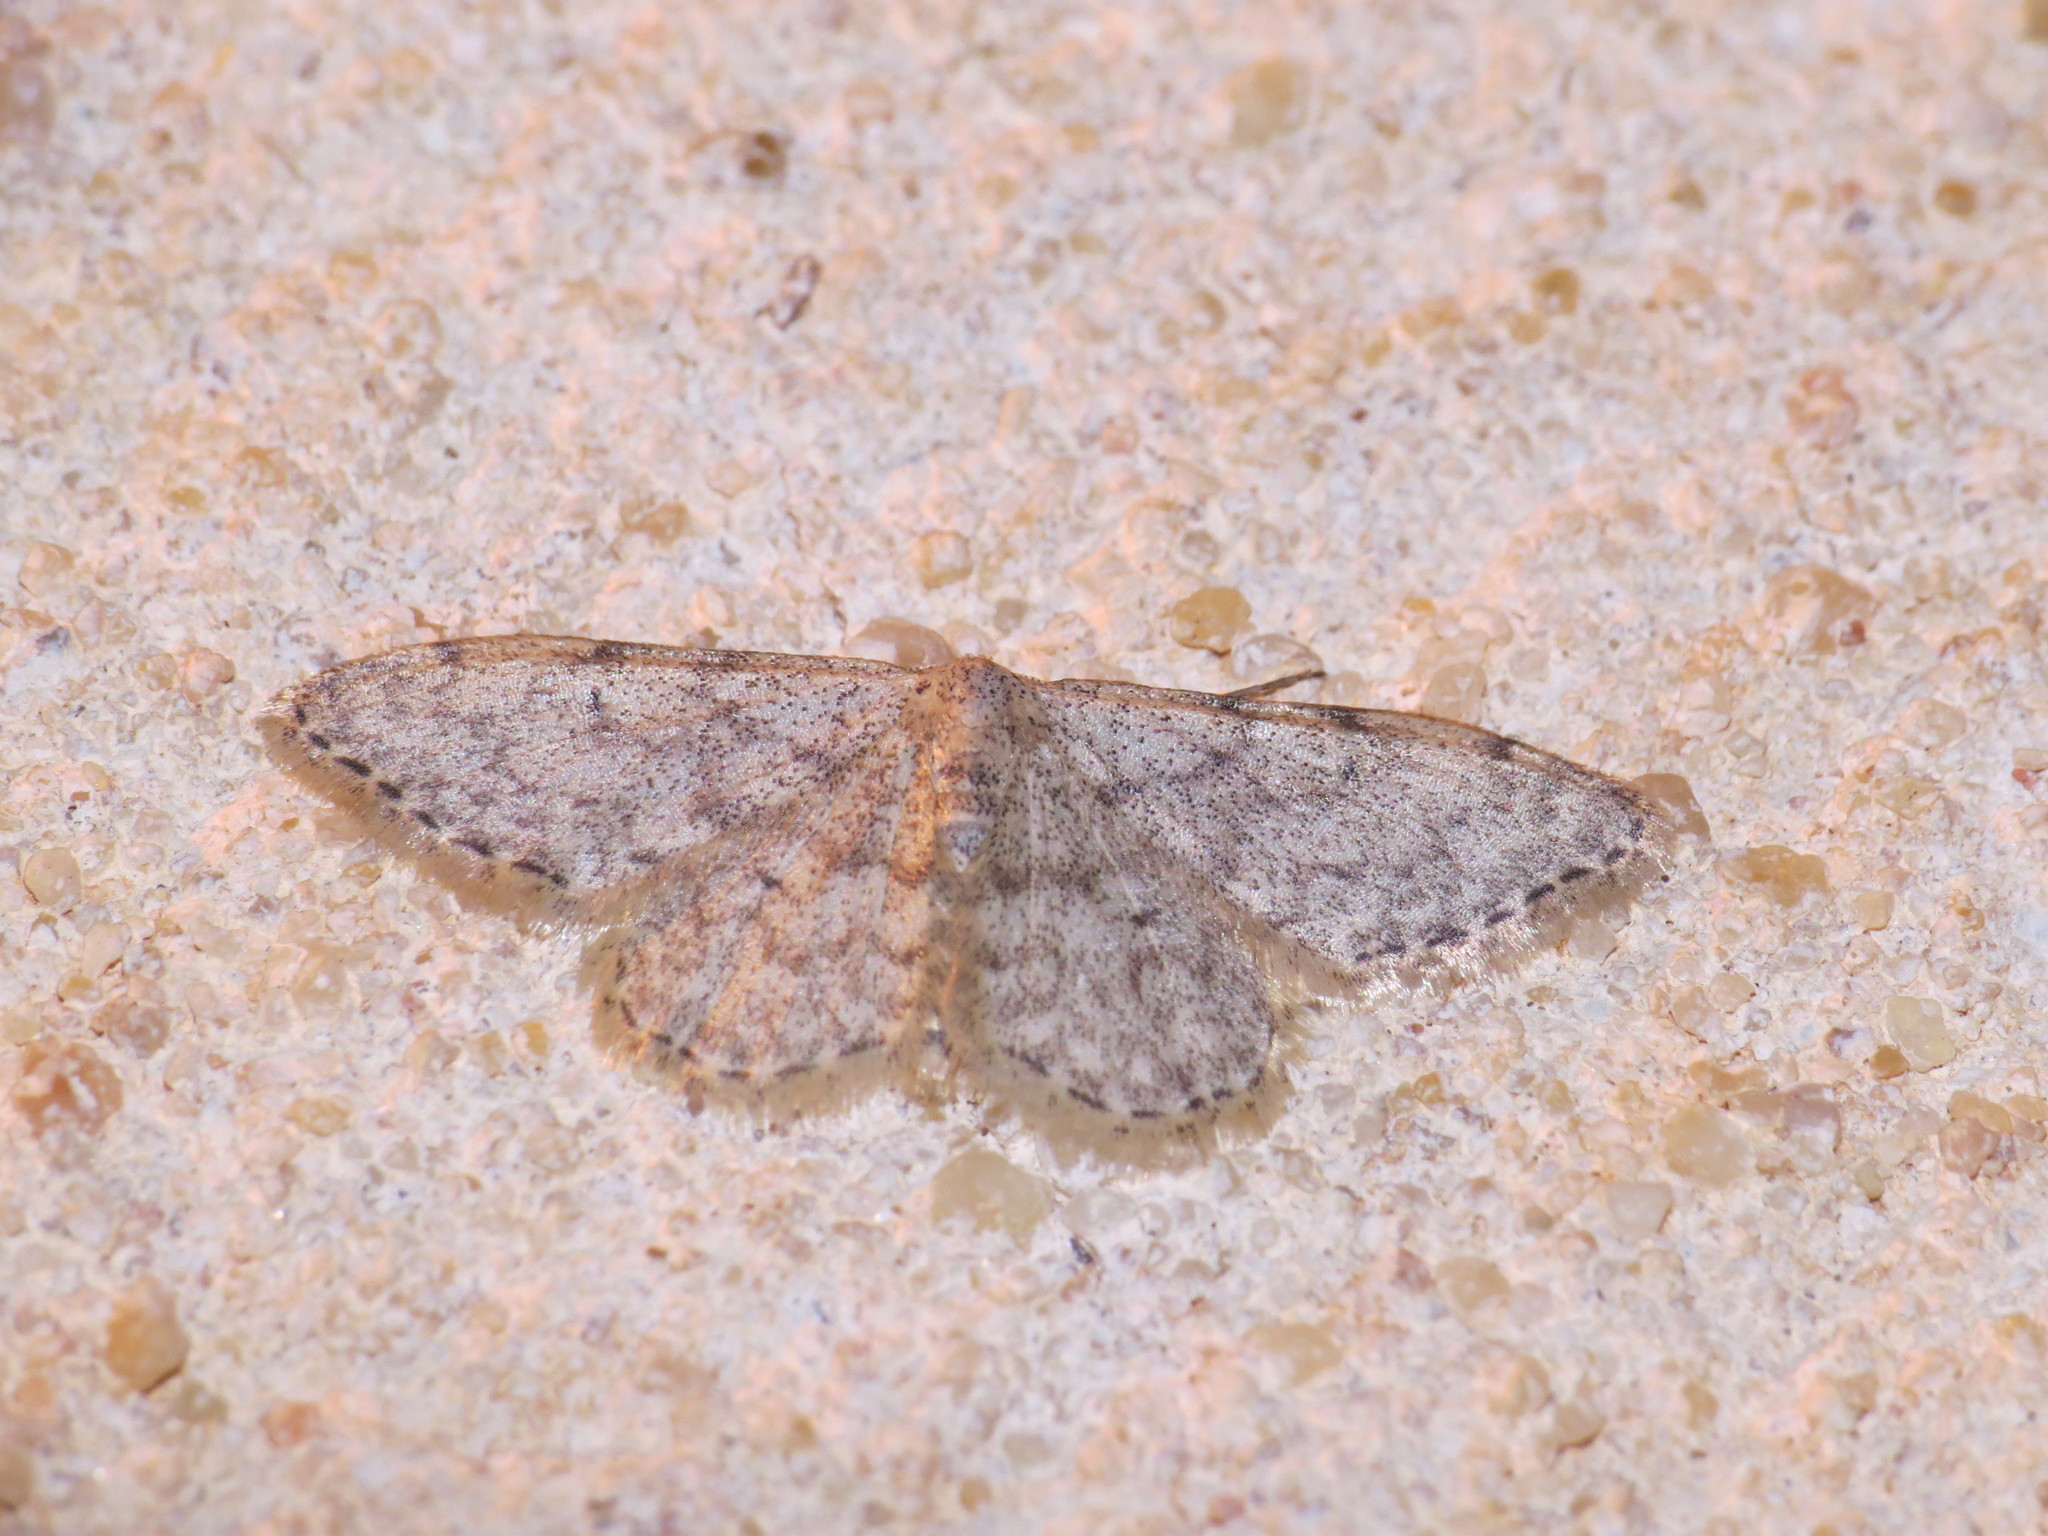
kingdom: Animalia
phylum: Arthropoda
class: Insecta
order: Lepidoptera
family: Geometridae
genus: Idaea
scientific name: Idaea alyssumata
